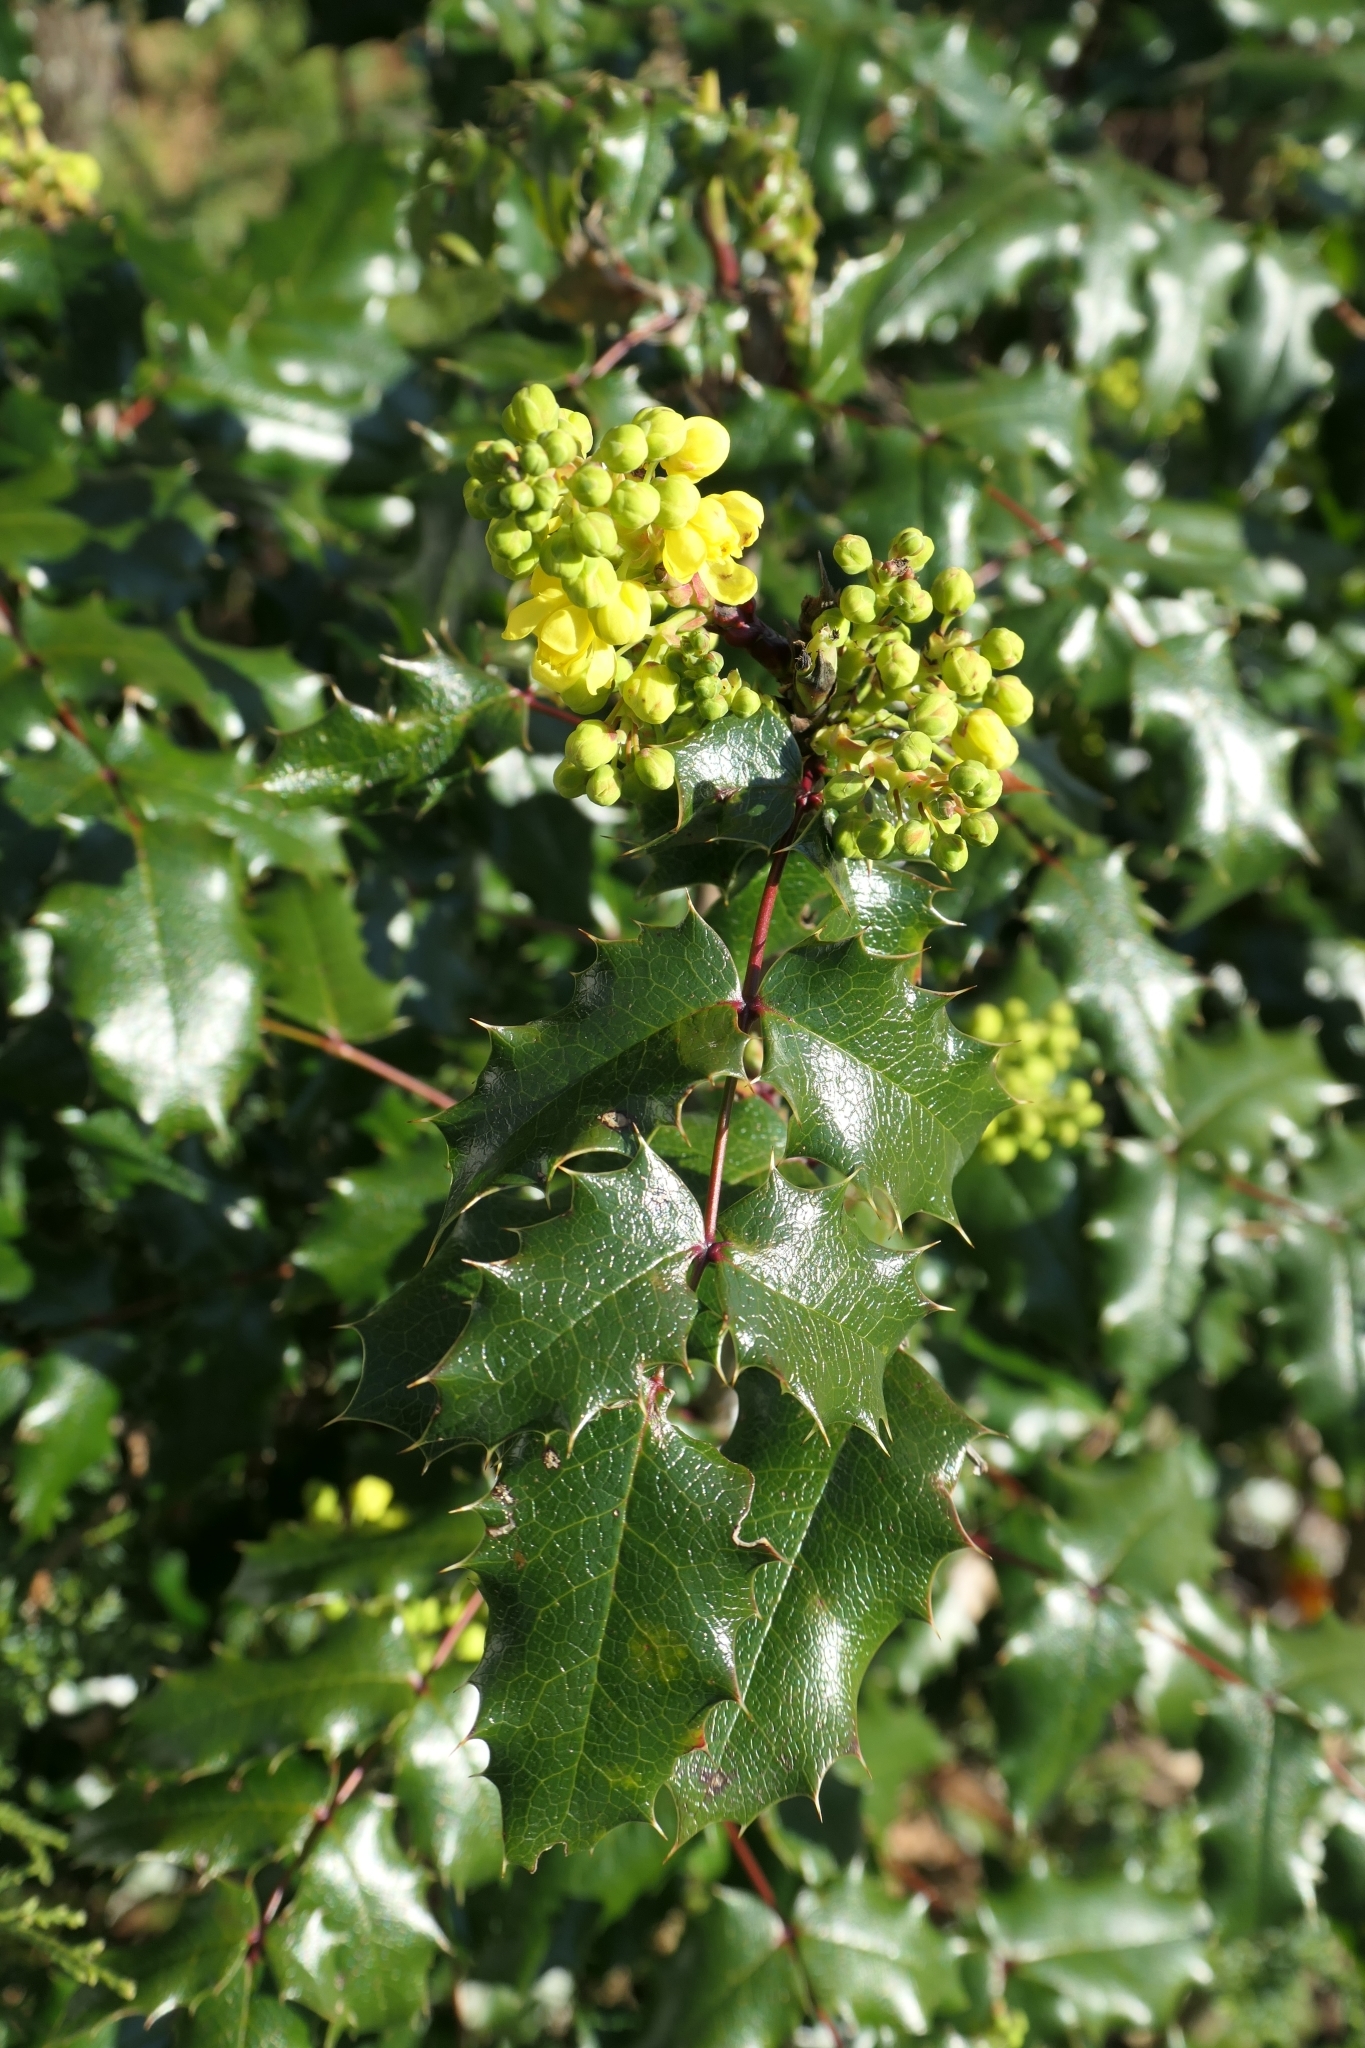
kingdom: Plantae
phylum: Tracheophyta
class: Magnoliopsida
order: Ranunculales
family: Berberidaceae
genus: Mahonia
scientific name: Mahonia aquifolium
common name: Oregon-grape
